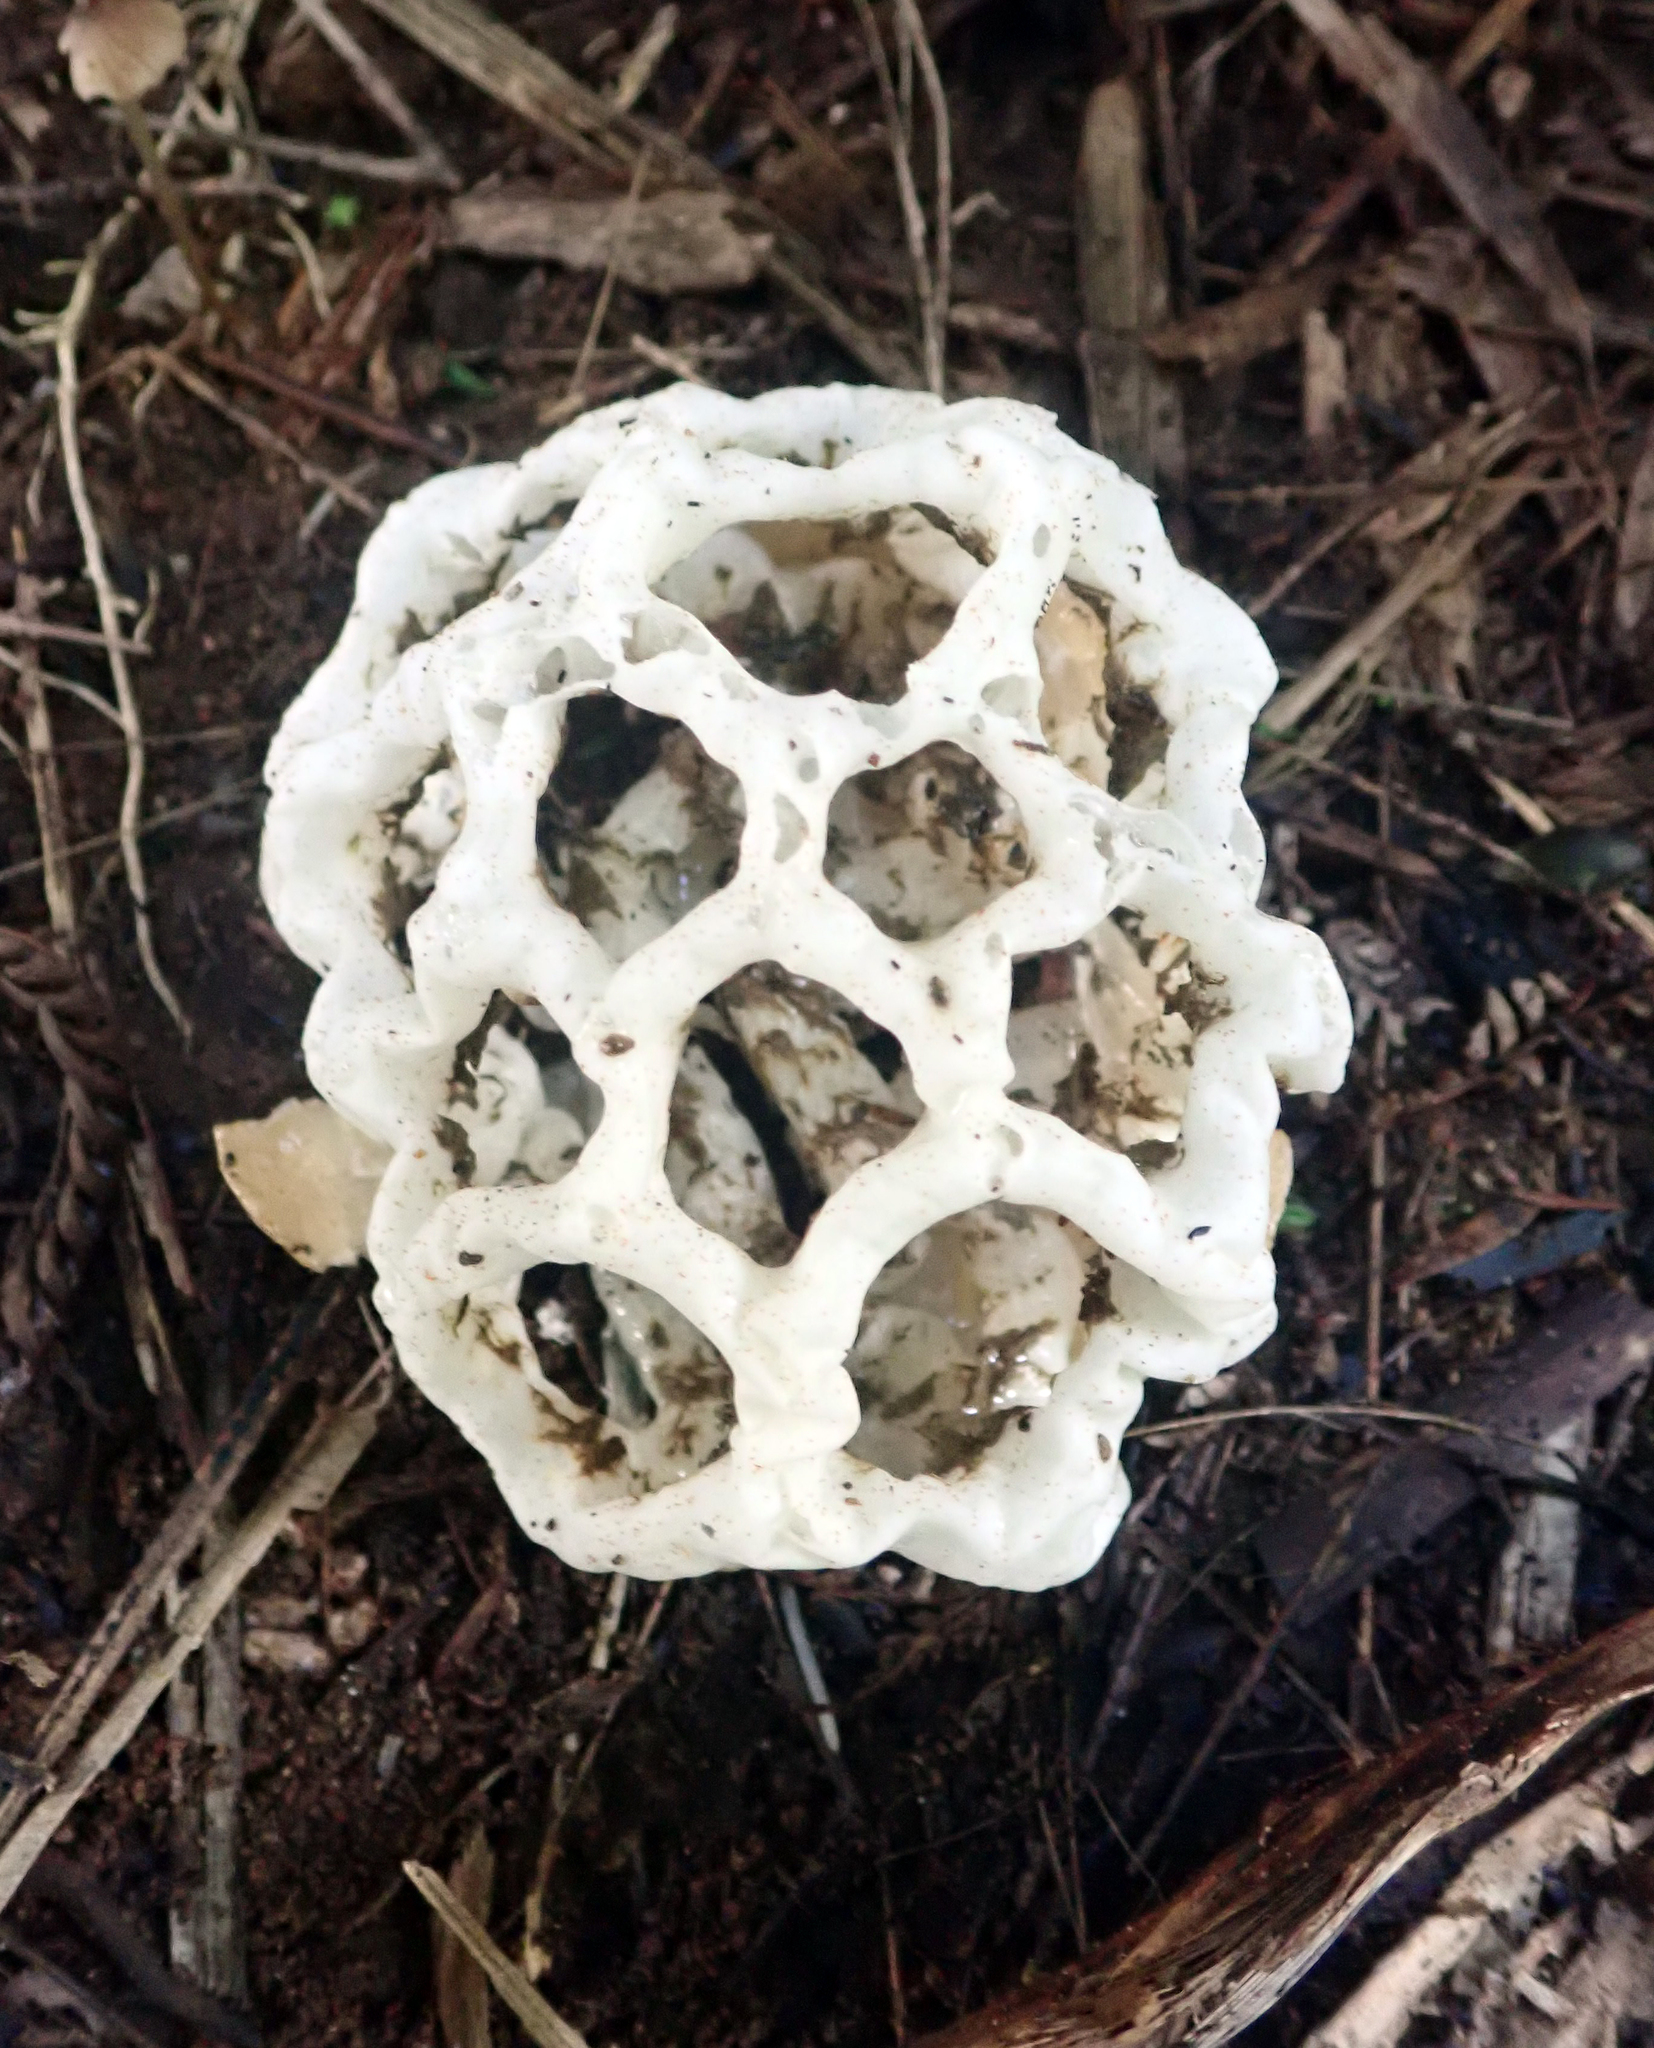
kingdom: Fungi
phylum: Basidiomycota
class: Agaricomycetes
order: Phallales
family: Phallaceae
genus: Ileodictyon
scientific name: Ileodictyon cibarium
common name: Basket fungus
